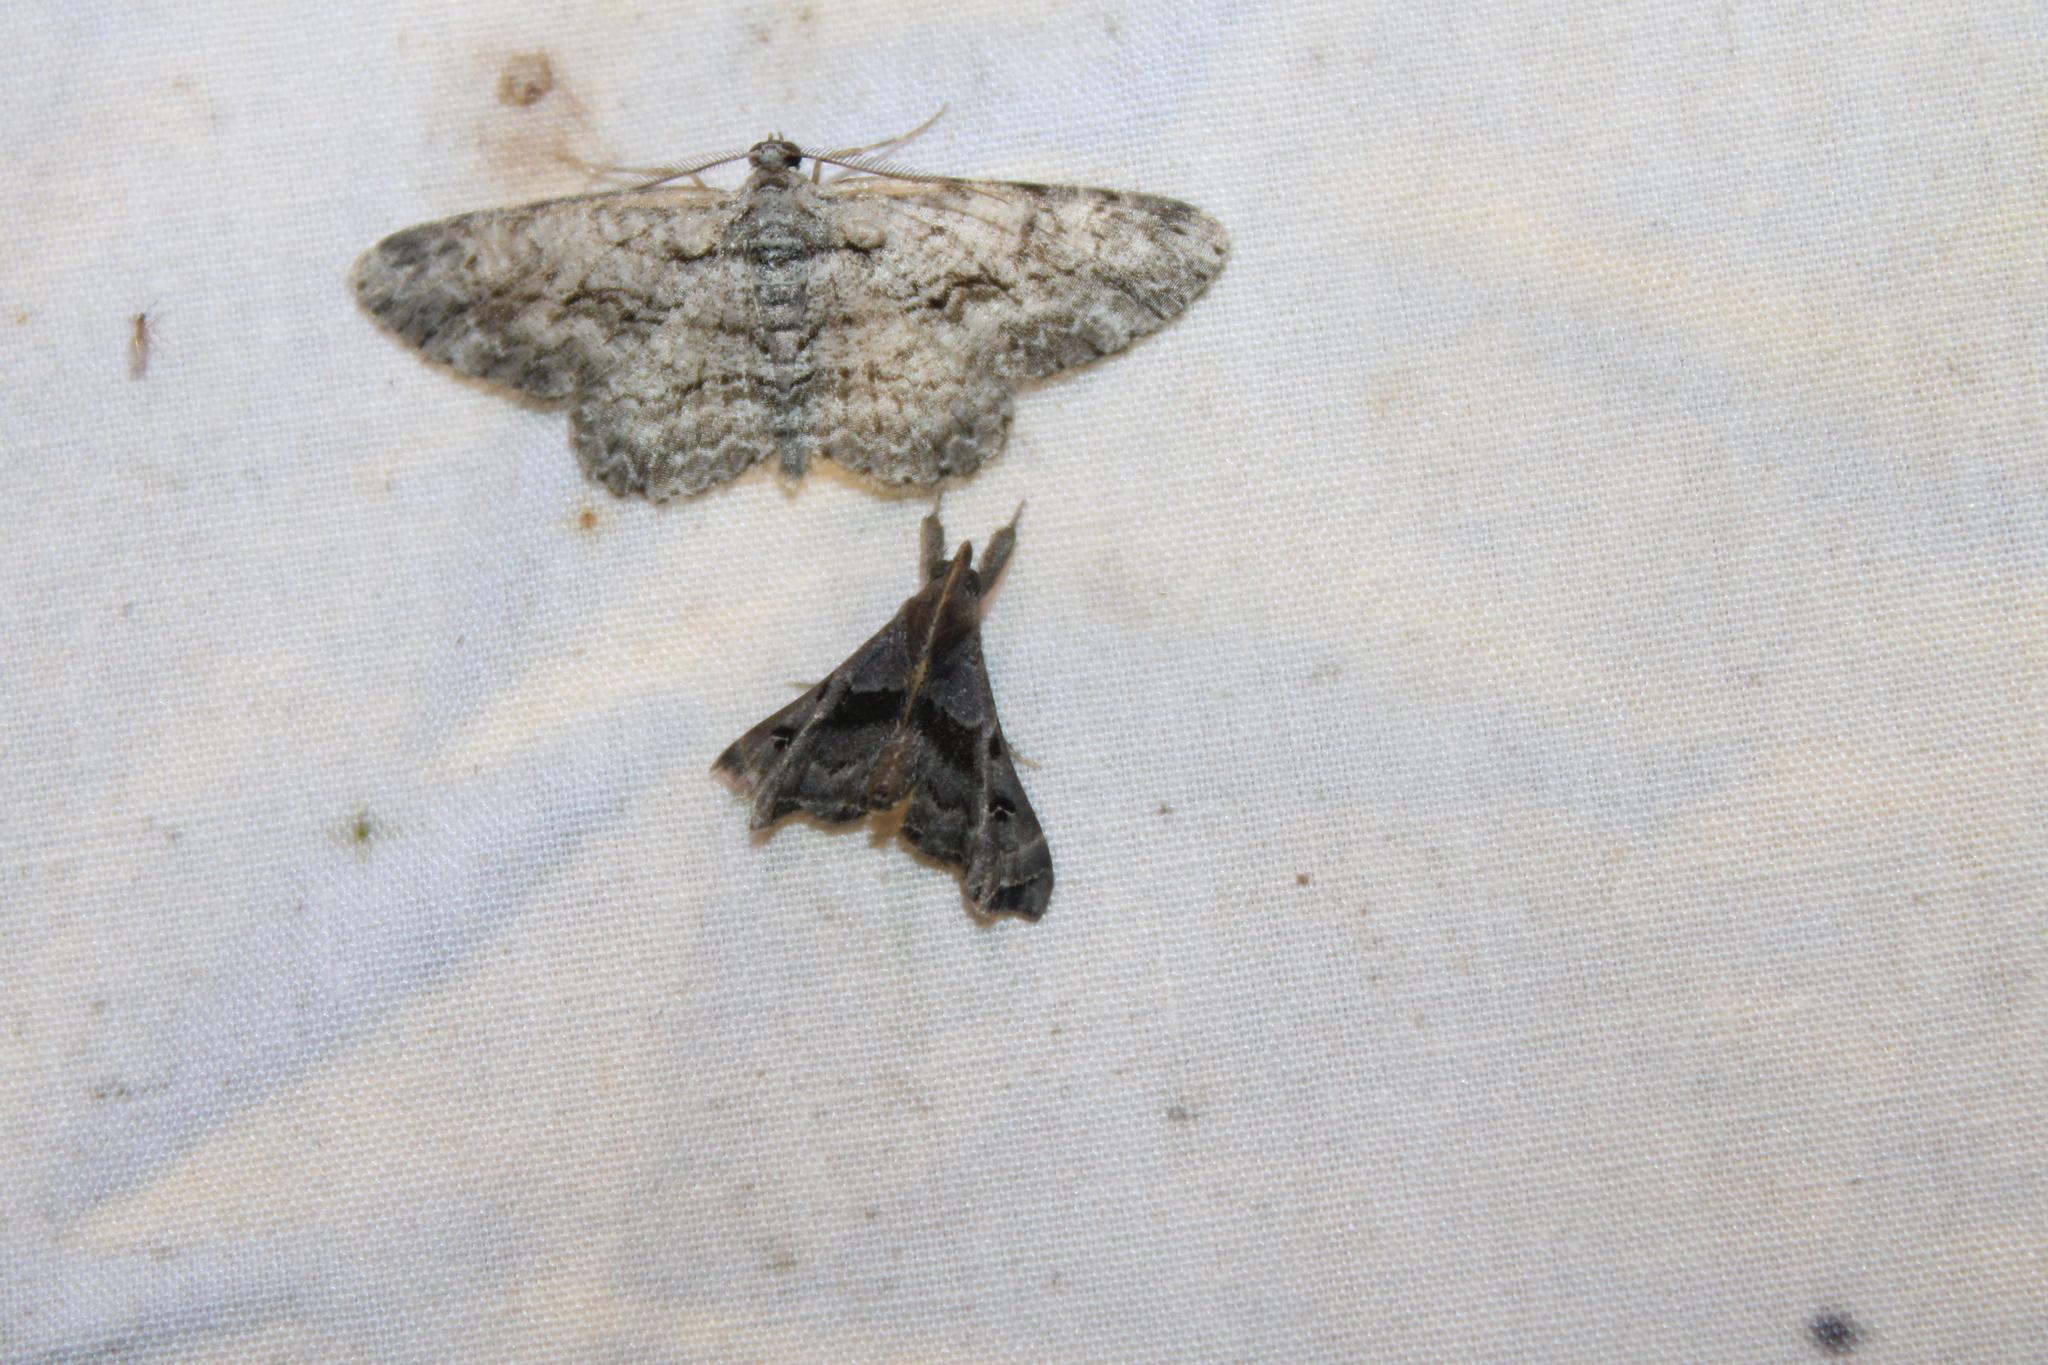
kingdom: Animalia
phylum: Arthropoda
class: Insecta
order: Lepidoptera
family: Erebidae
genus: Palthis
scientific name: Palthis asopialis
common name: Faint-spotted palthis moth
